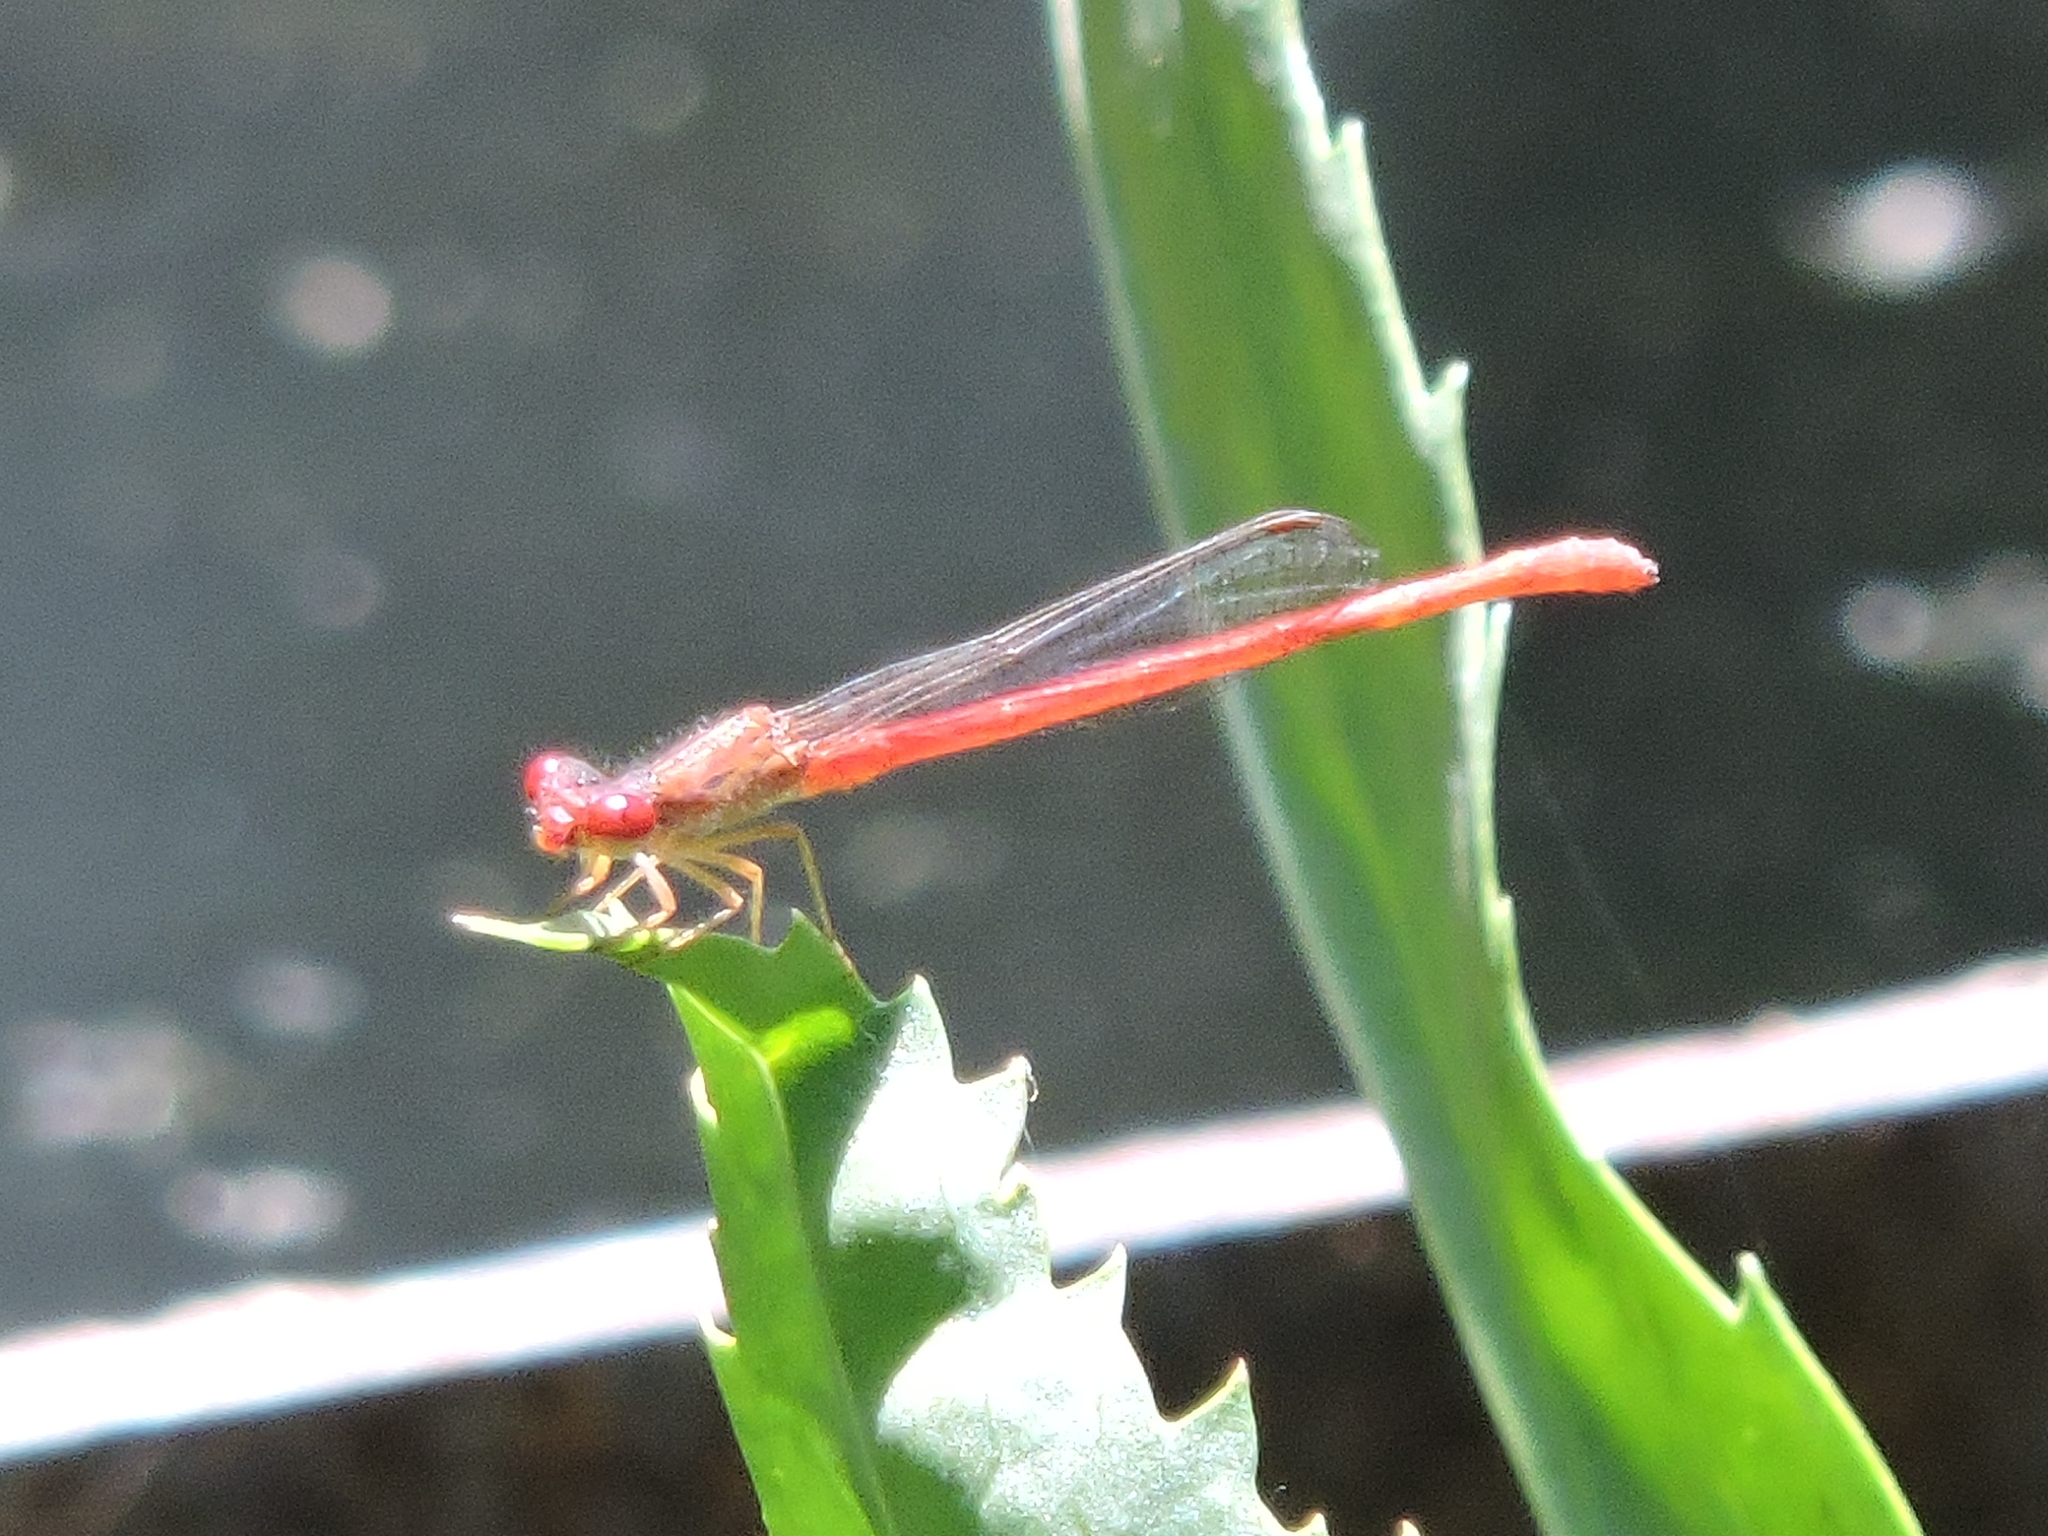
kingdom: Animalia
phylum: Arthropoda
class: Insecta
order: Odonata
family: Coenagrionidae
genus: Telebasis
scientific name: Telebasis salva
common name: Desert firetail
